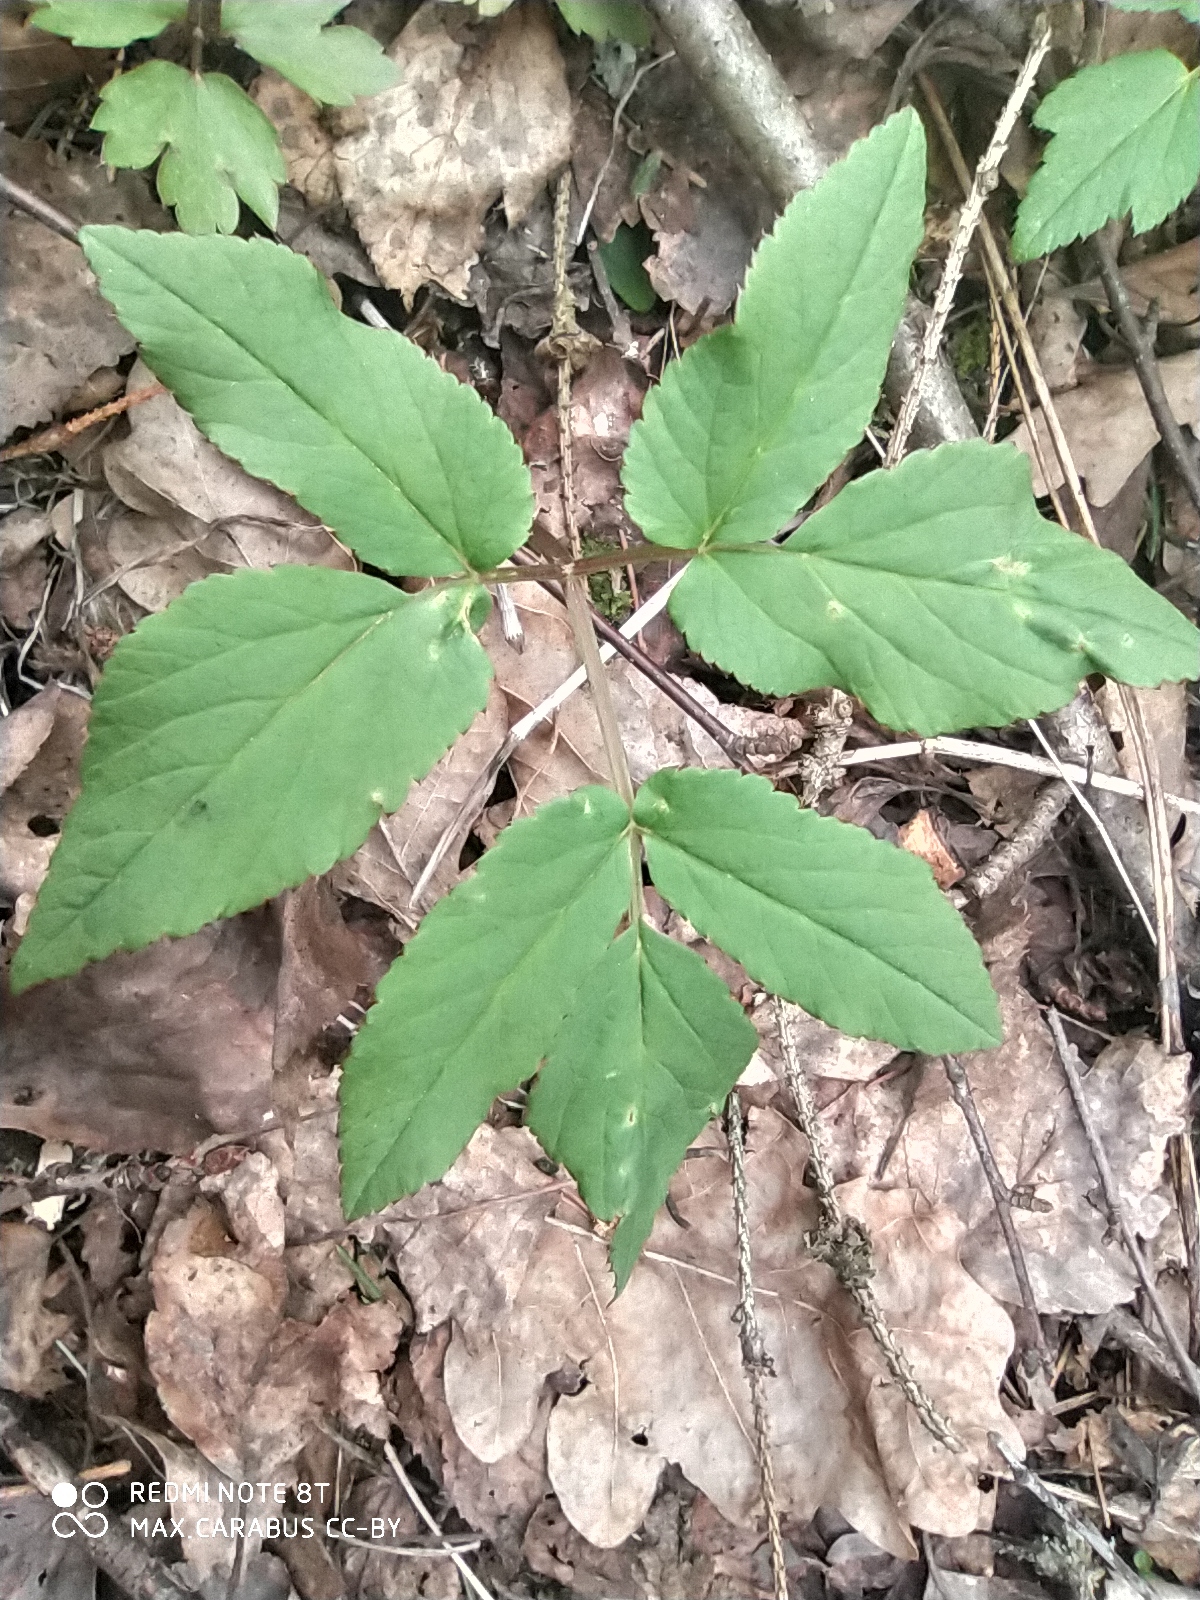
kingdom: Plantae
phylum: Tracheophyta
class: Magnoliopsida
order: Apiales
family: Apiaceae
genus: Aegopodium
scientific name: Aegopodium podagraria
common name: Ground-elder
